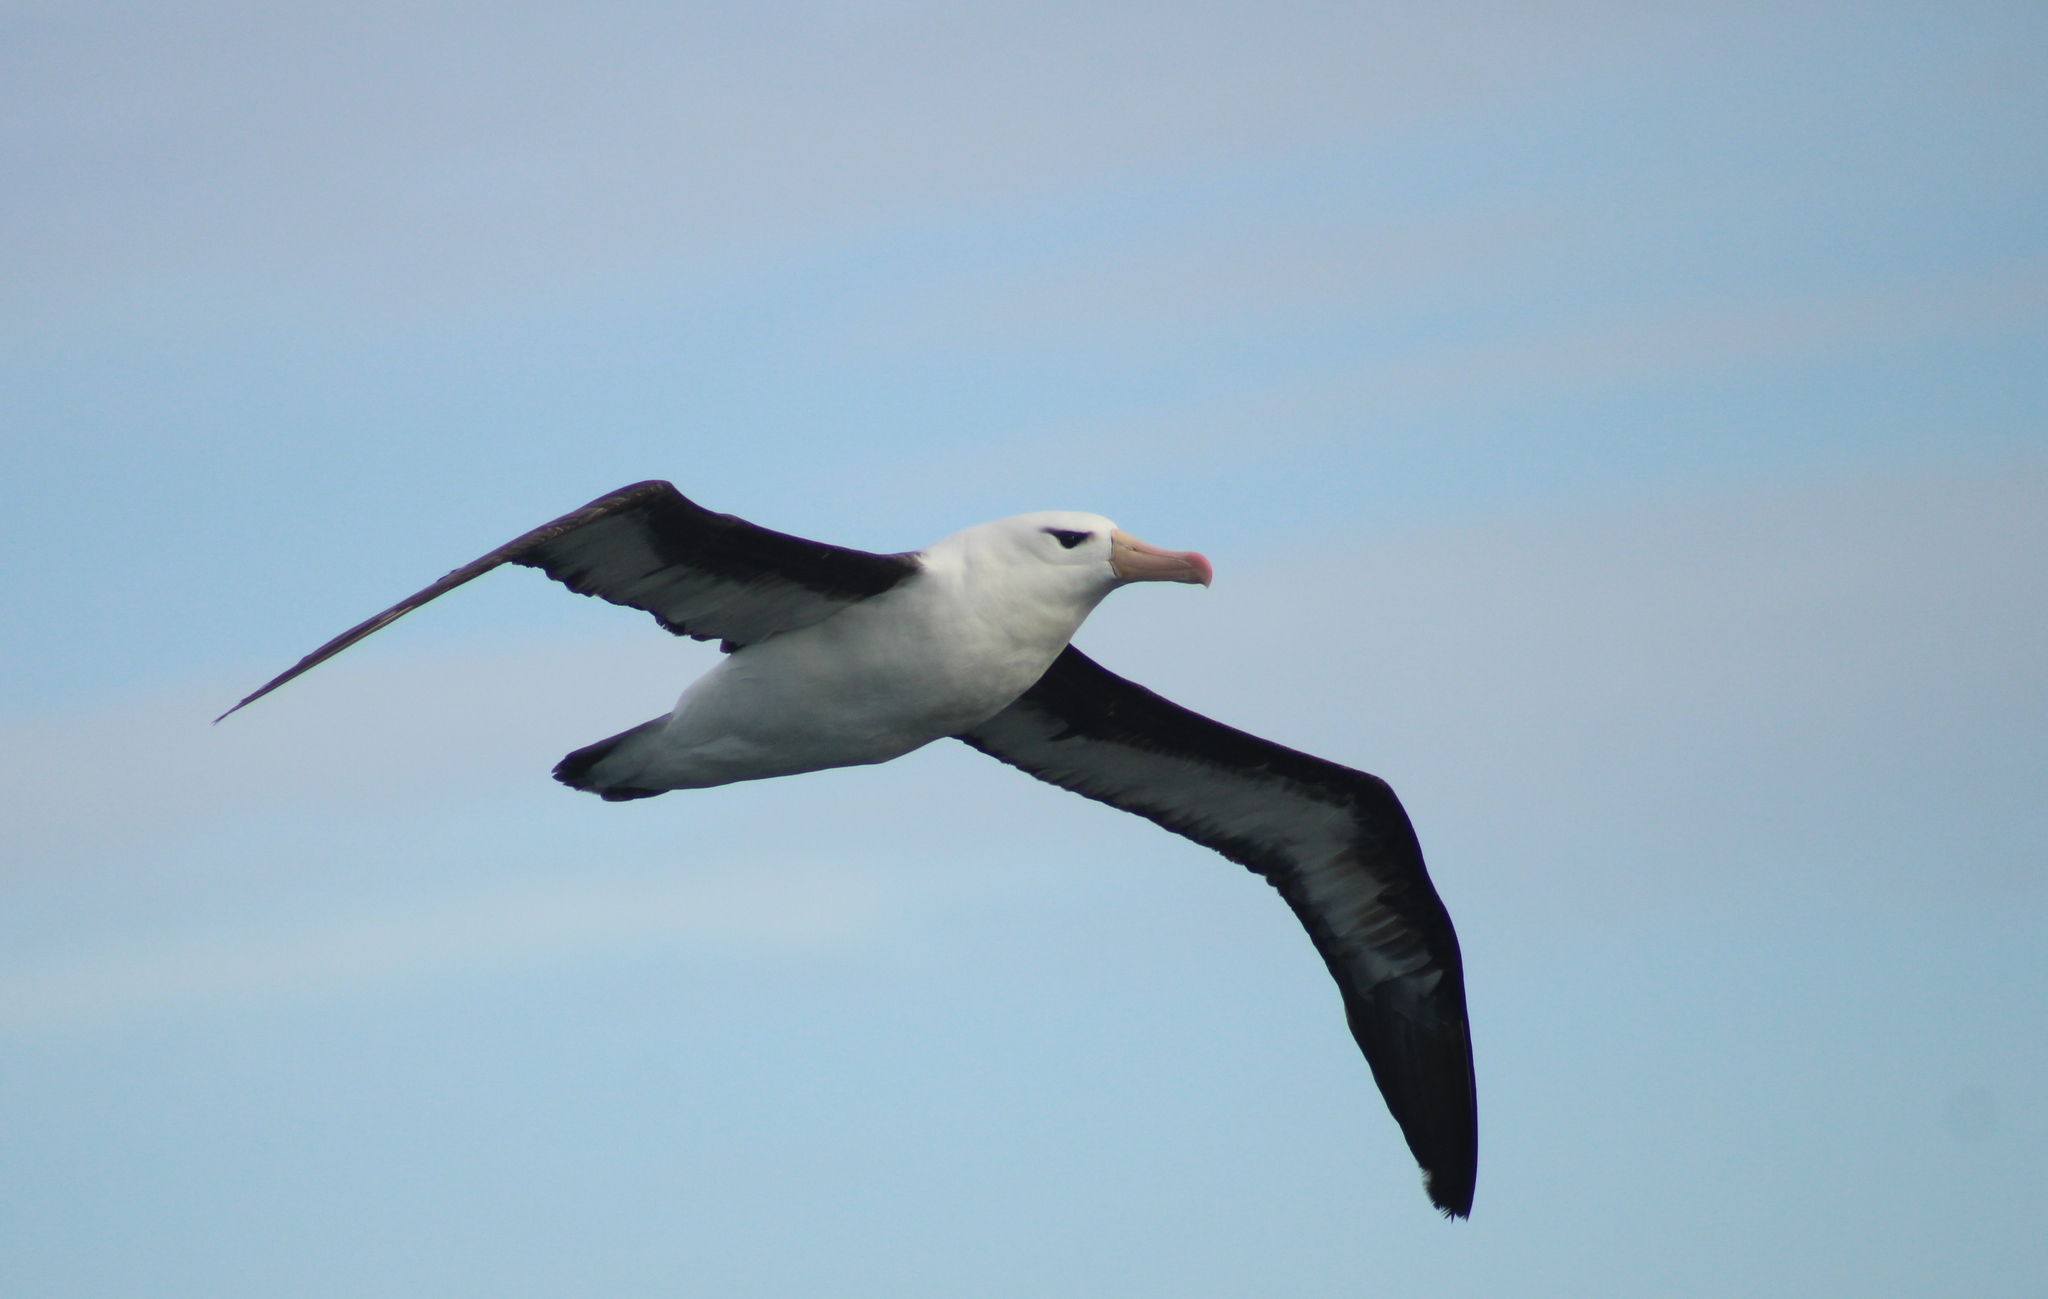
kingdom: Animalia
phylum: Chordata
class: Aves
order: Procellariiformes
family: Diomedeidae
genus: Thalassarche
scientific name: Thalassarche melanophris
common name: Black-browed albatross
